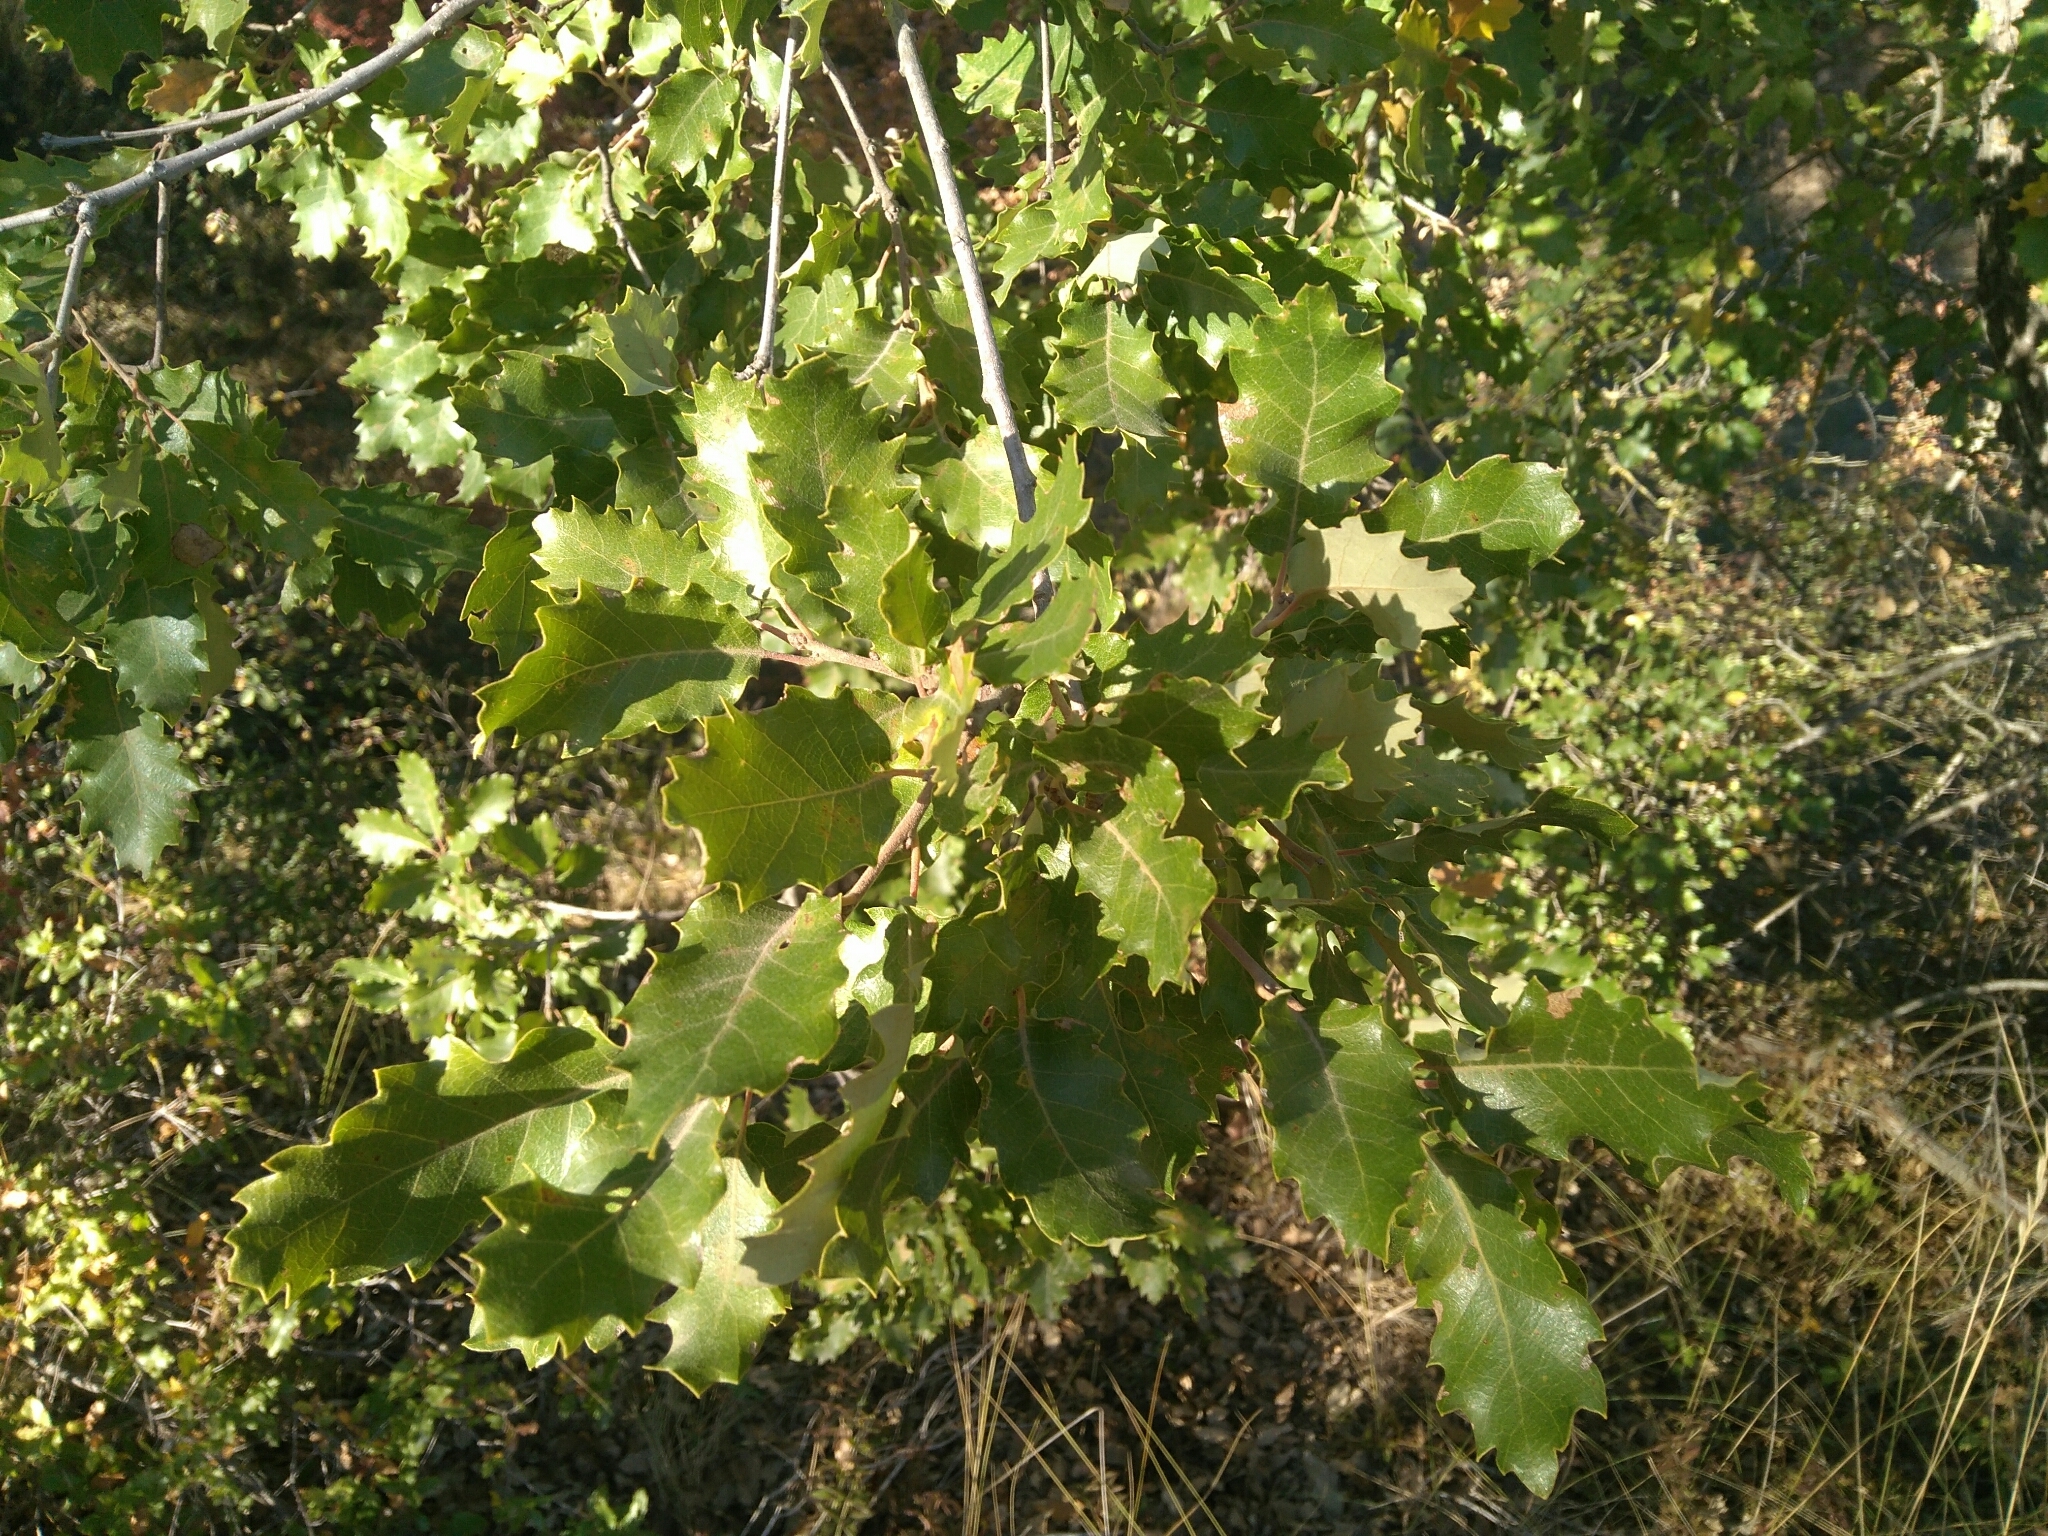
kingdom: Plantae
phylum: Tracheophyta
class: Magnoliopsida
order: Fagales
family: Fagaceae
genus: Quercus
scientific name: Quercus pubescens
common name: Downy oak
